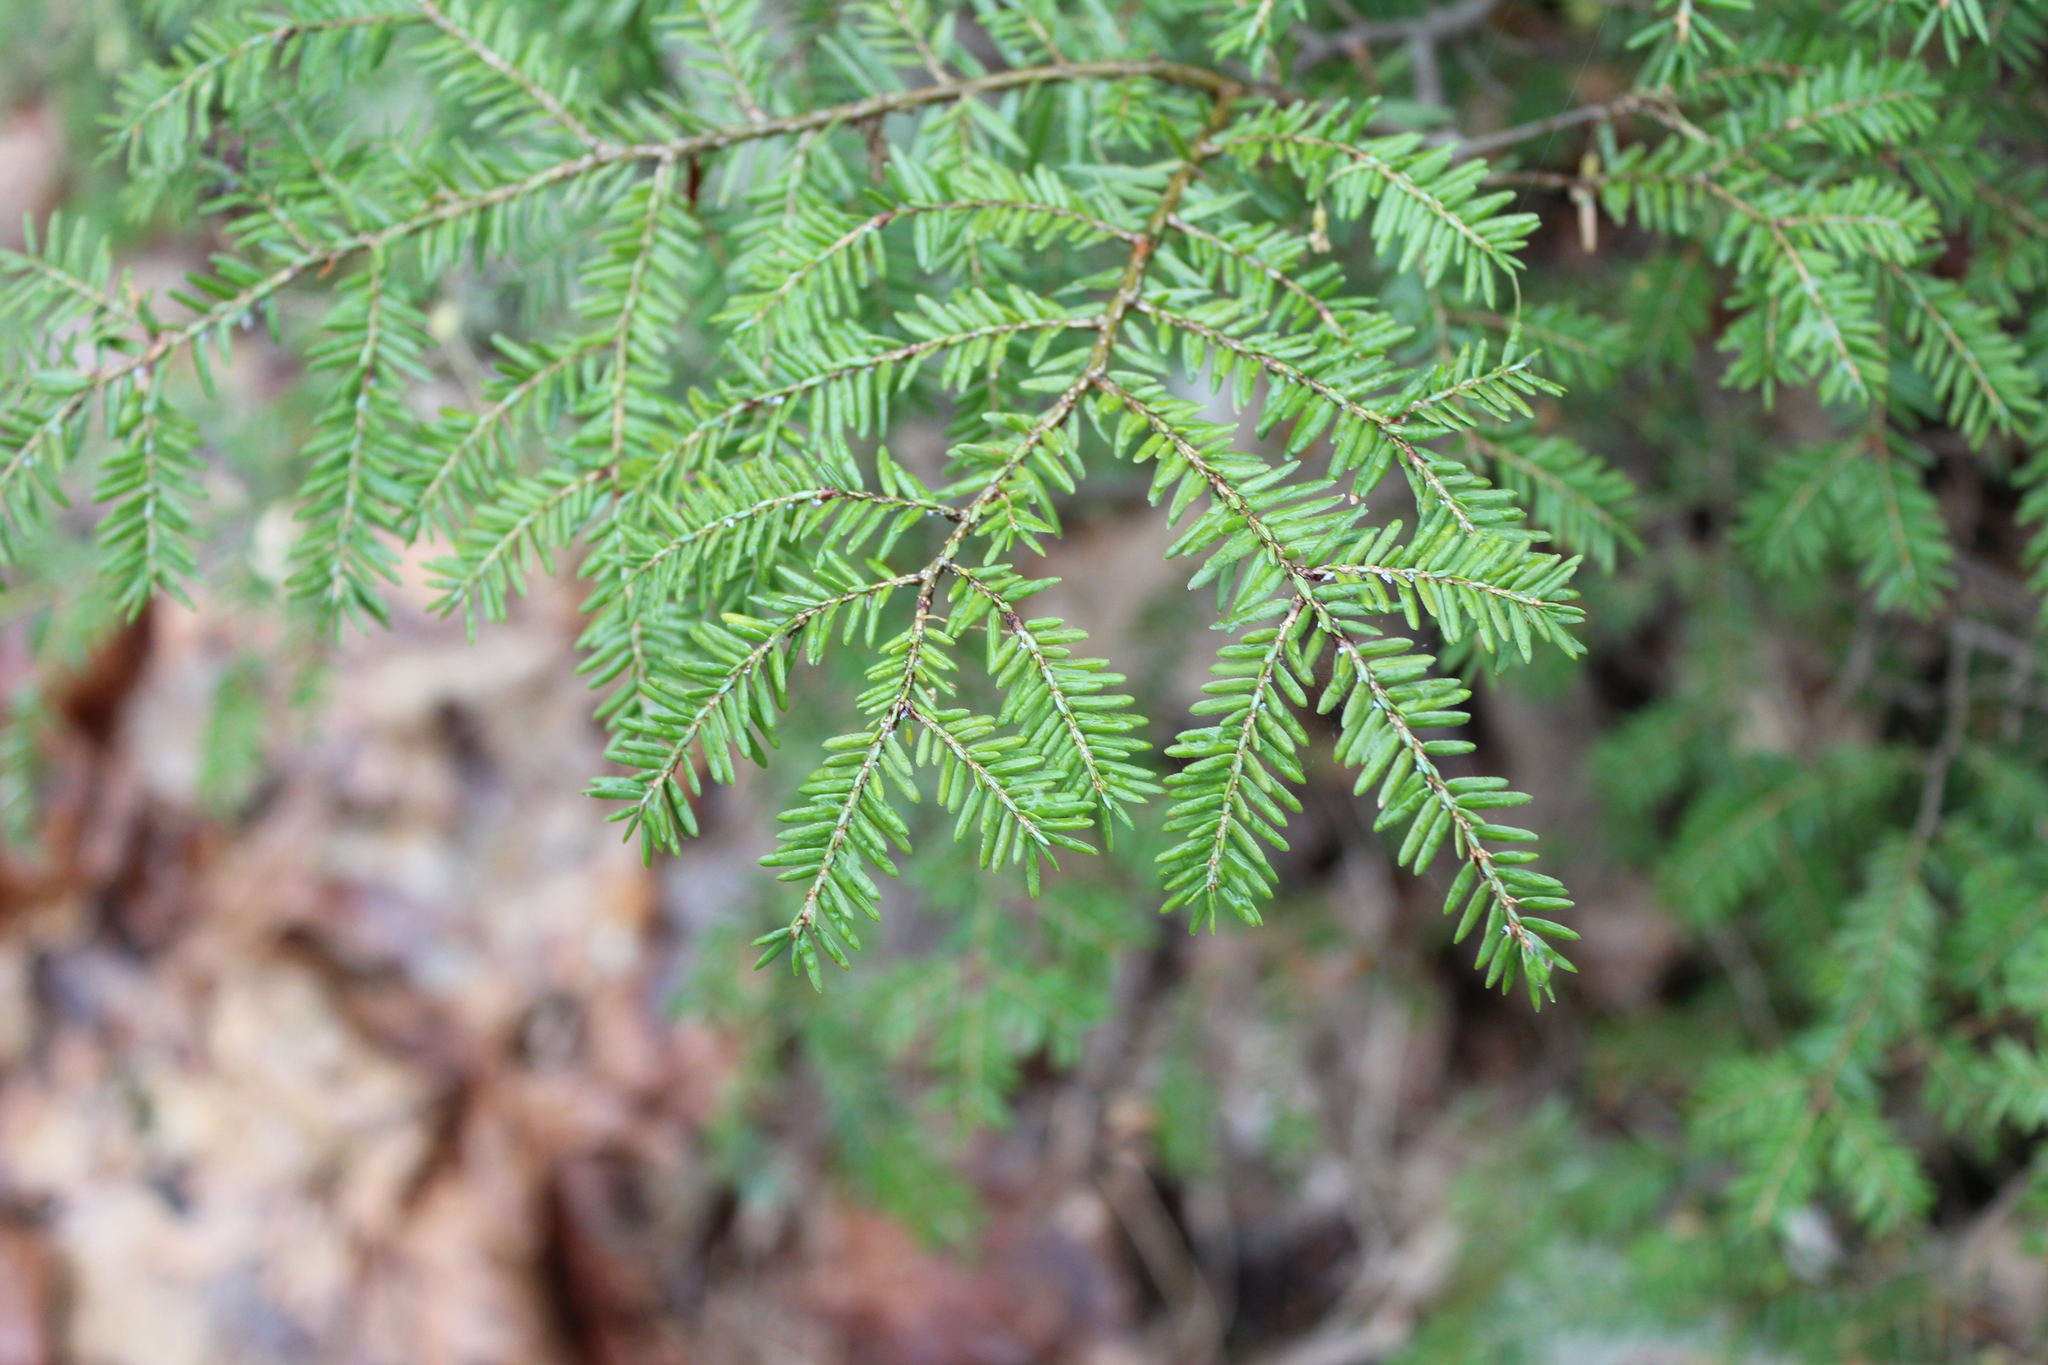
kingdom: Plantae
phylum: Tracheophyta
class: Pinopsida
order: Pinales
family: Pinaceae
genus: Tsuga
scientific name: Tsuga canadensis
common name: Eastern hemlock
